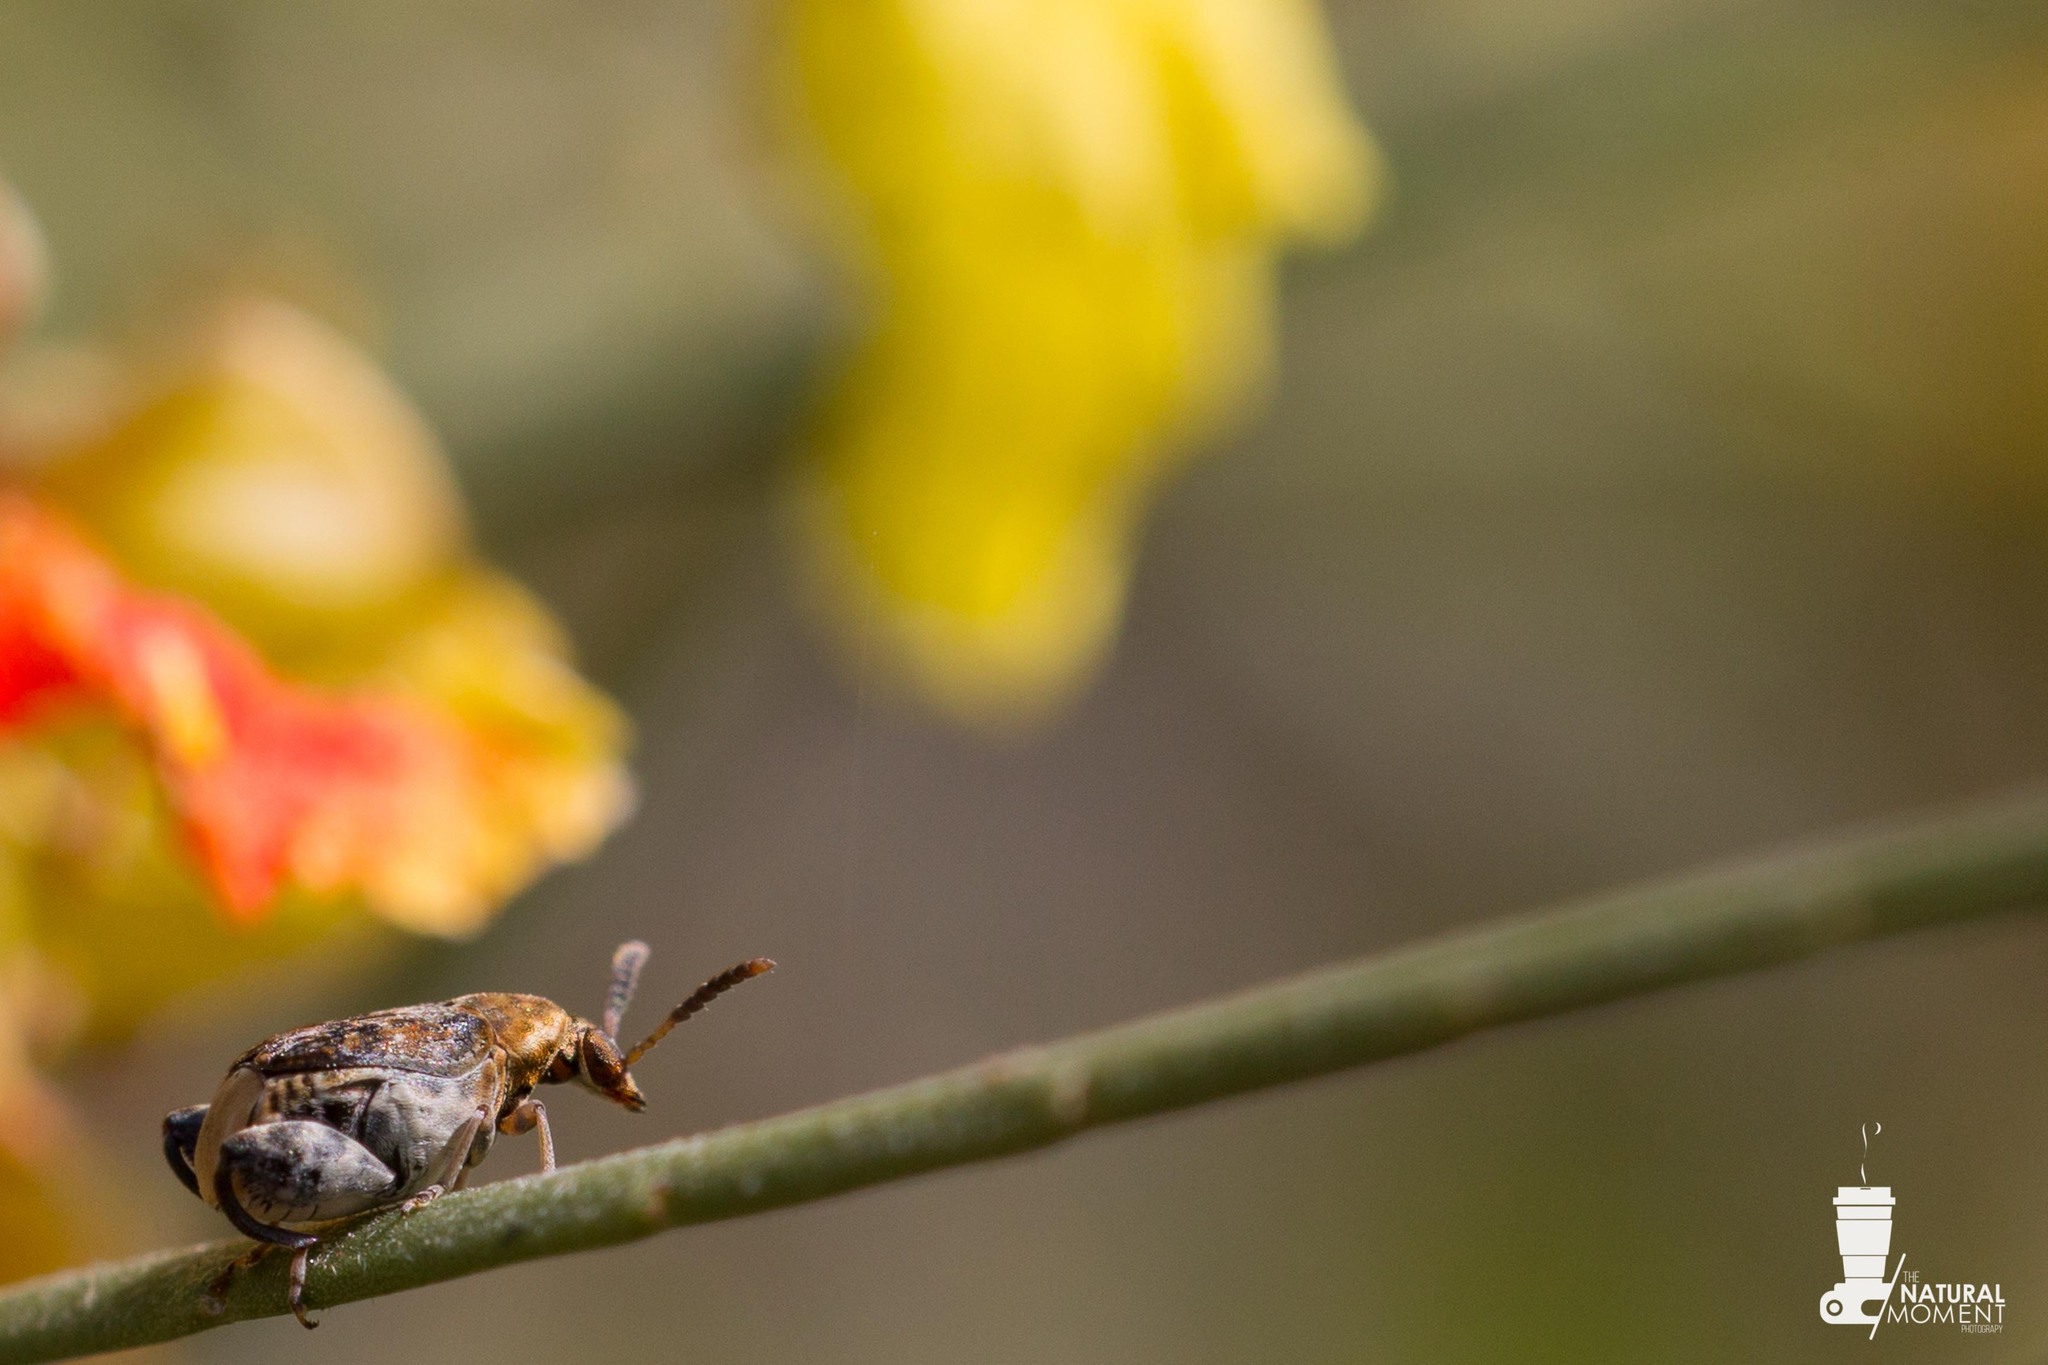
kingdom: Animalia
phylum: Arthropoda
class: Insecta
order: Coleoptera
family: Chrysomelidae
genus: Penthobruchus
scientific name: Penthobruchus
